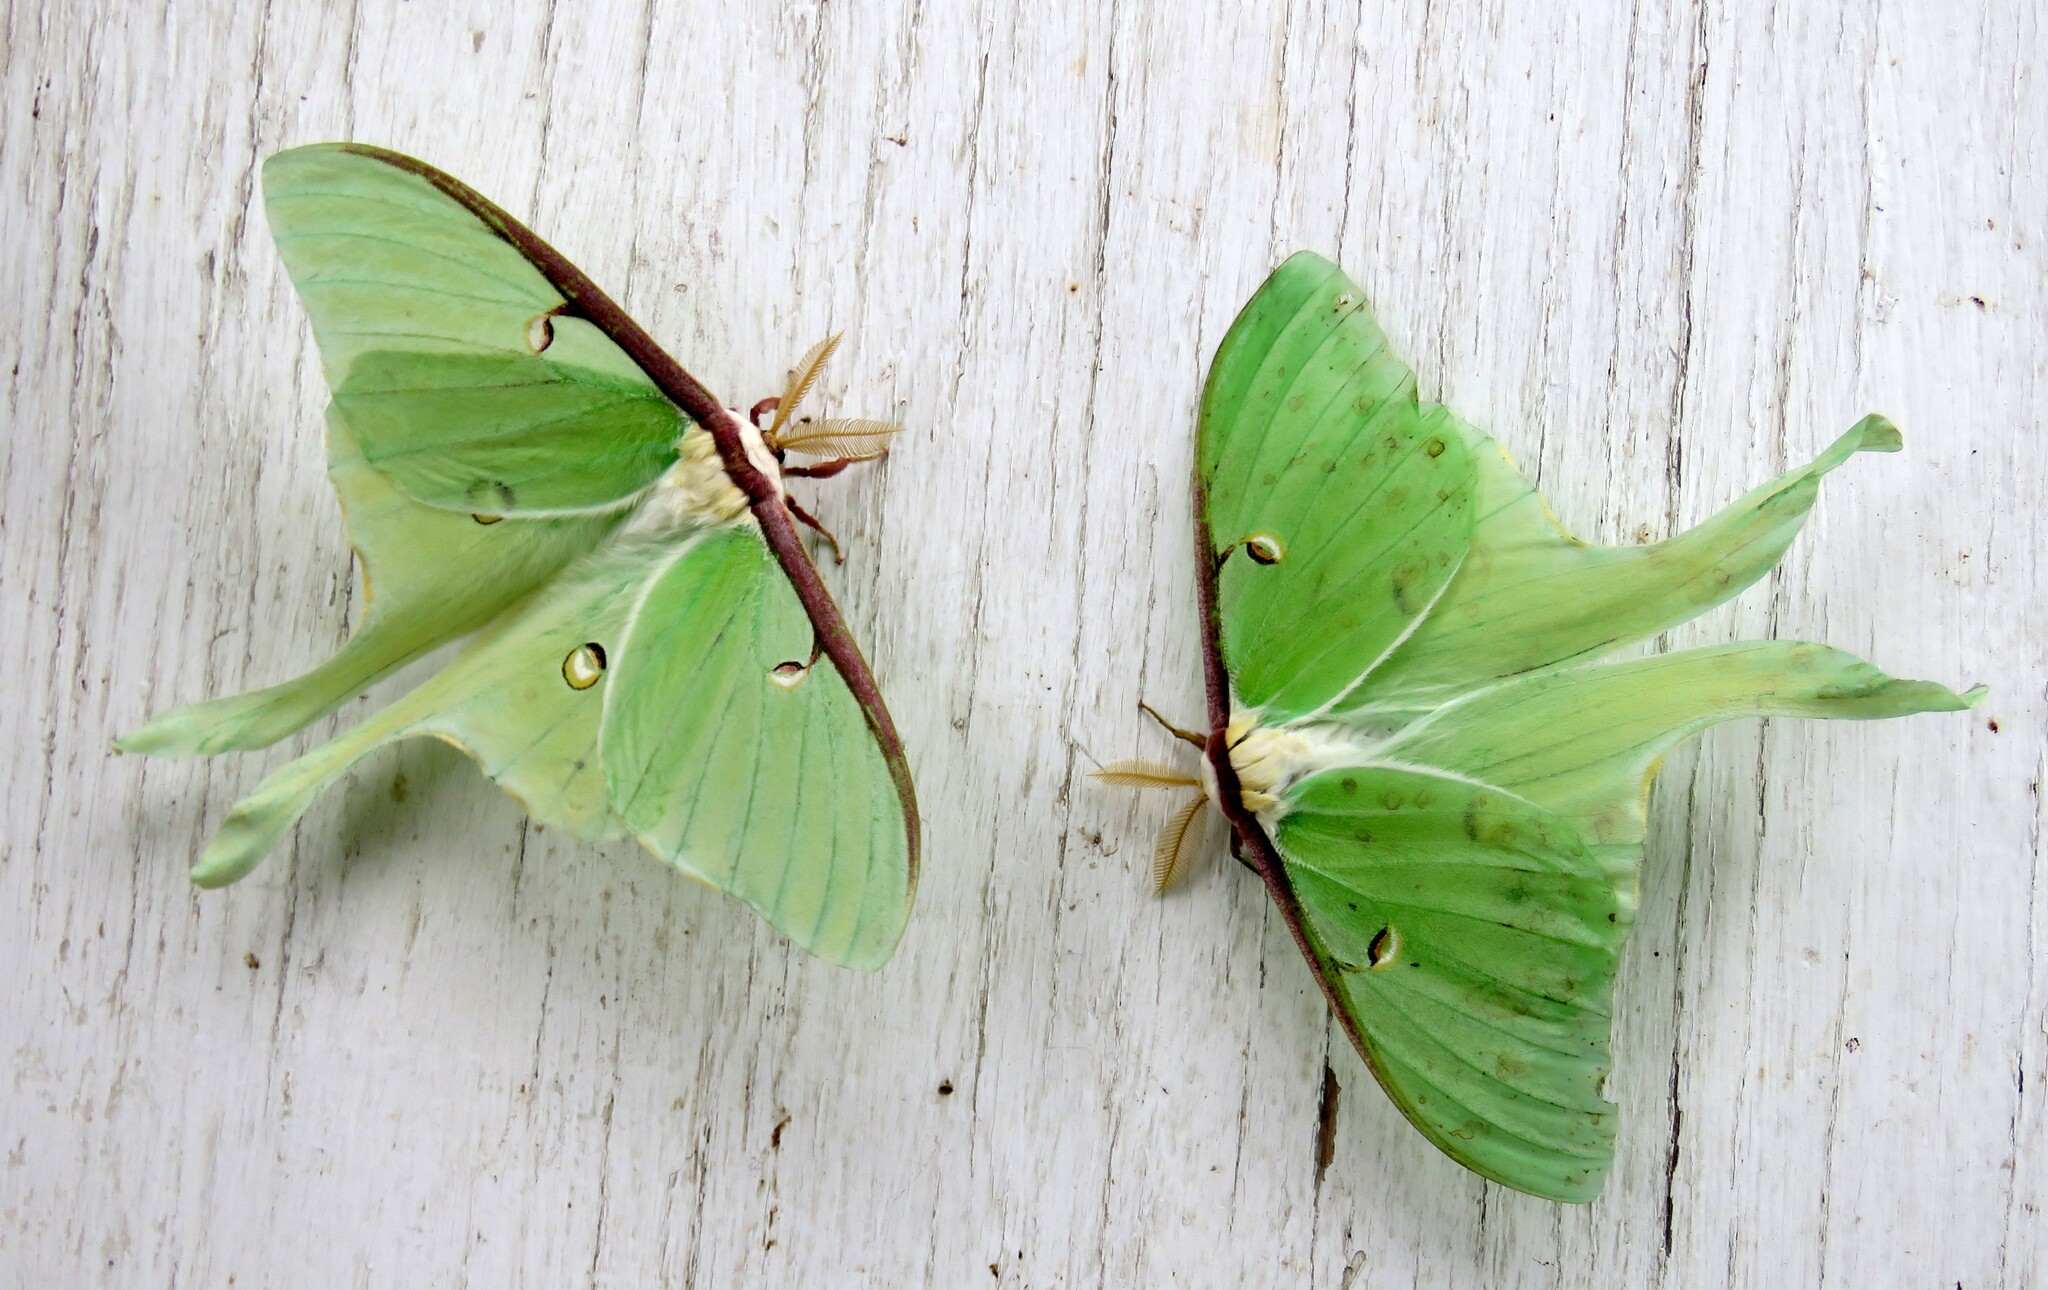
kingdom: Animalia
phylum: Arthropoda
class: Insecta
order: Lepidoptera
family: Saturniidae
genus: Actias
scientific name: Actias luna
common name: Luna moth
